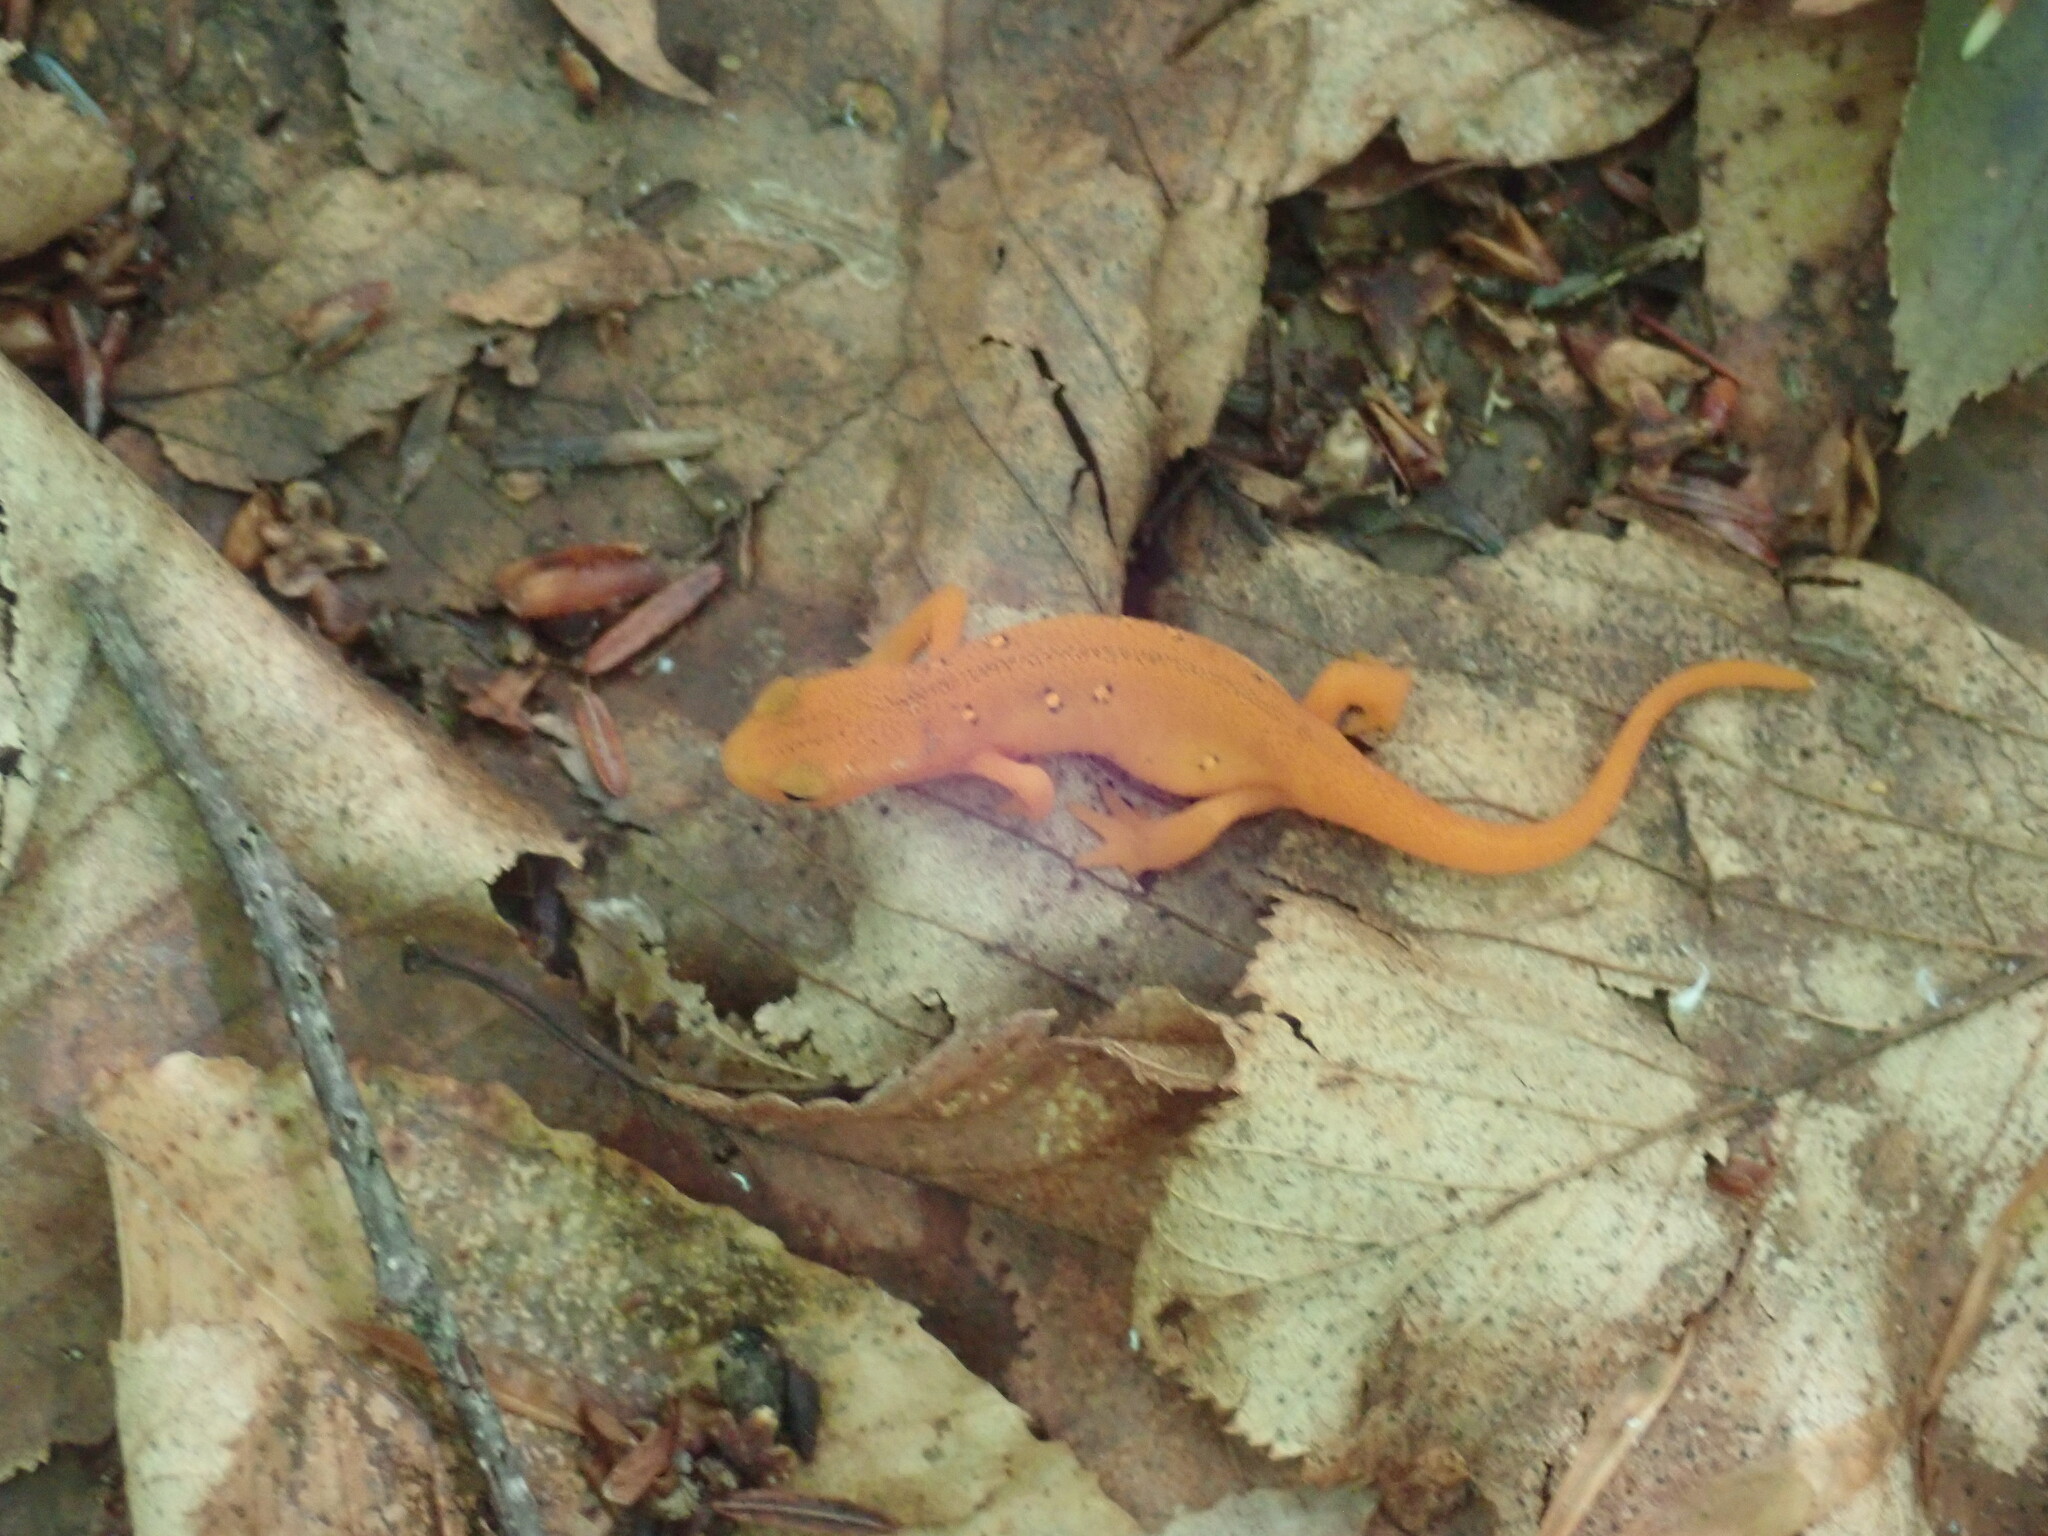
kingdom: Animalia
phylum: Chordata
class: Amphibia
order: Caudata
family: Salamandridae
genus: Notophthalmus
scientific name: Notophthalmus viridescens
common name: Eastern newt
